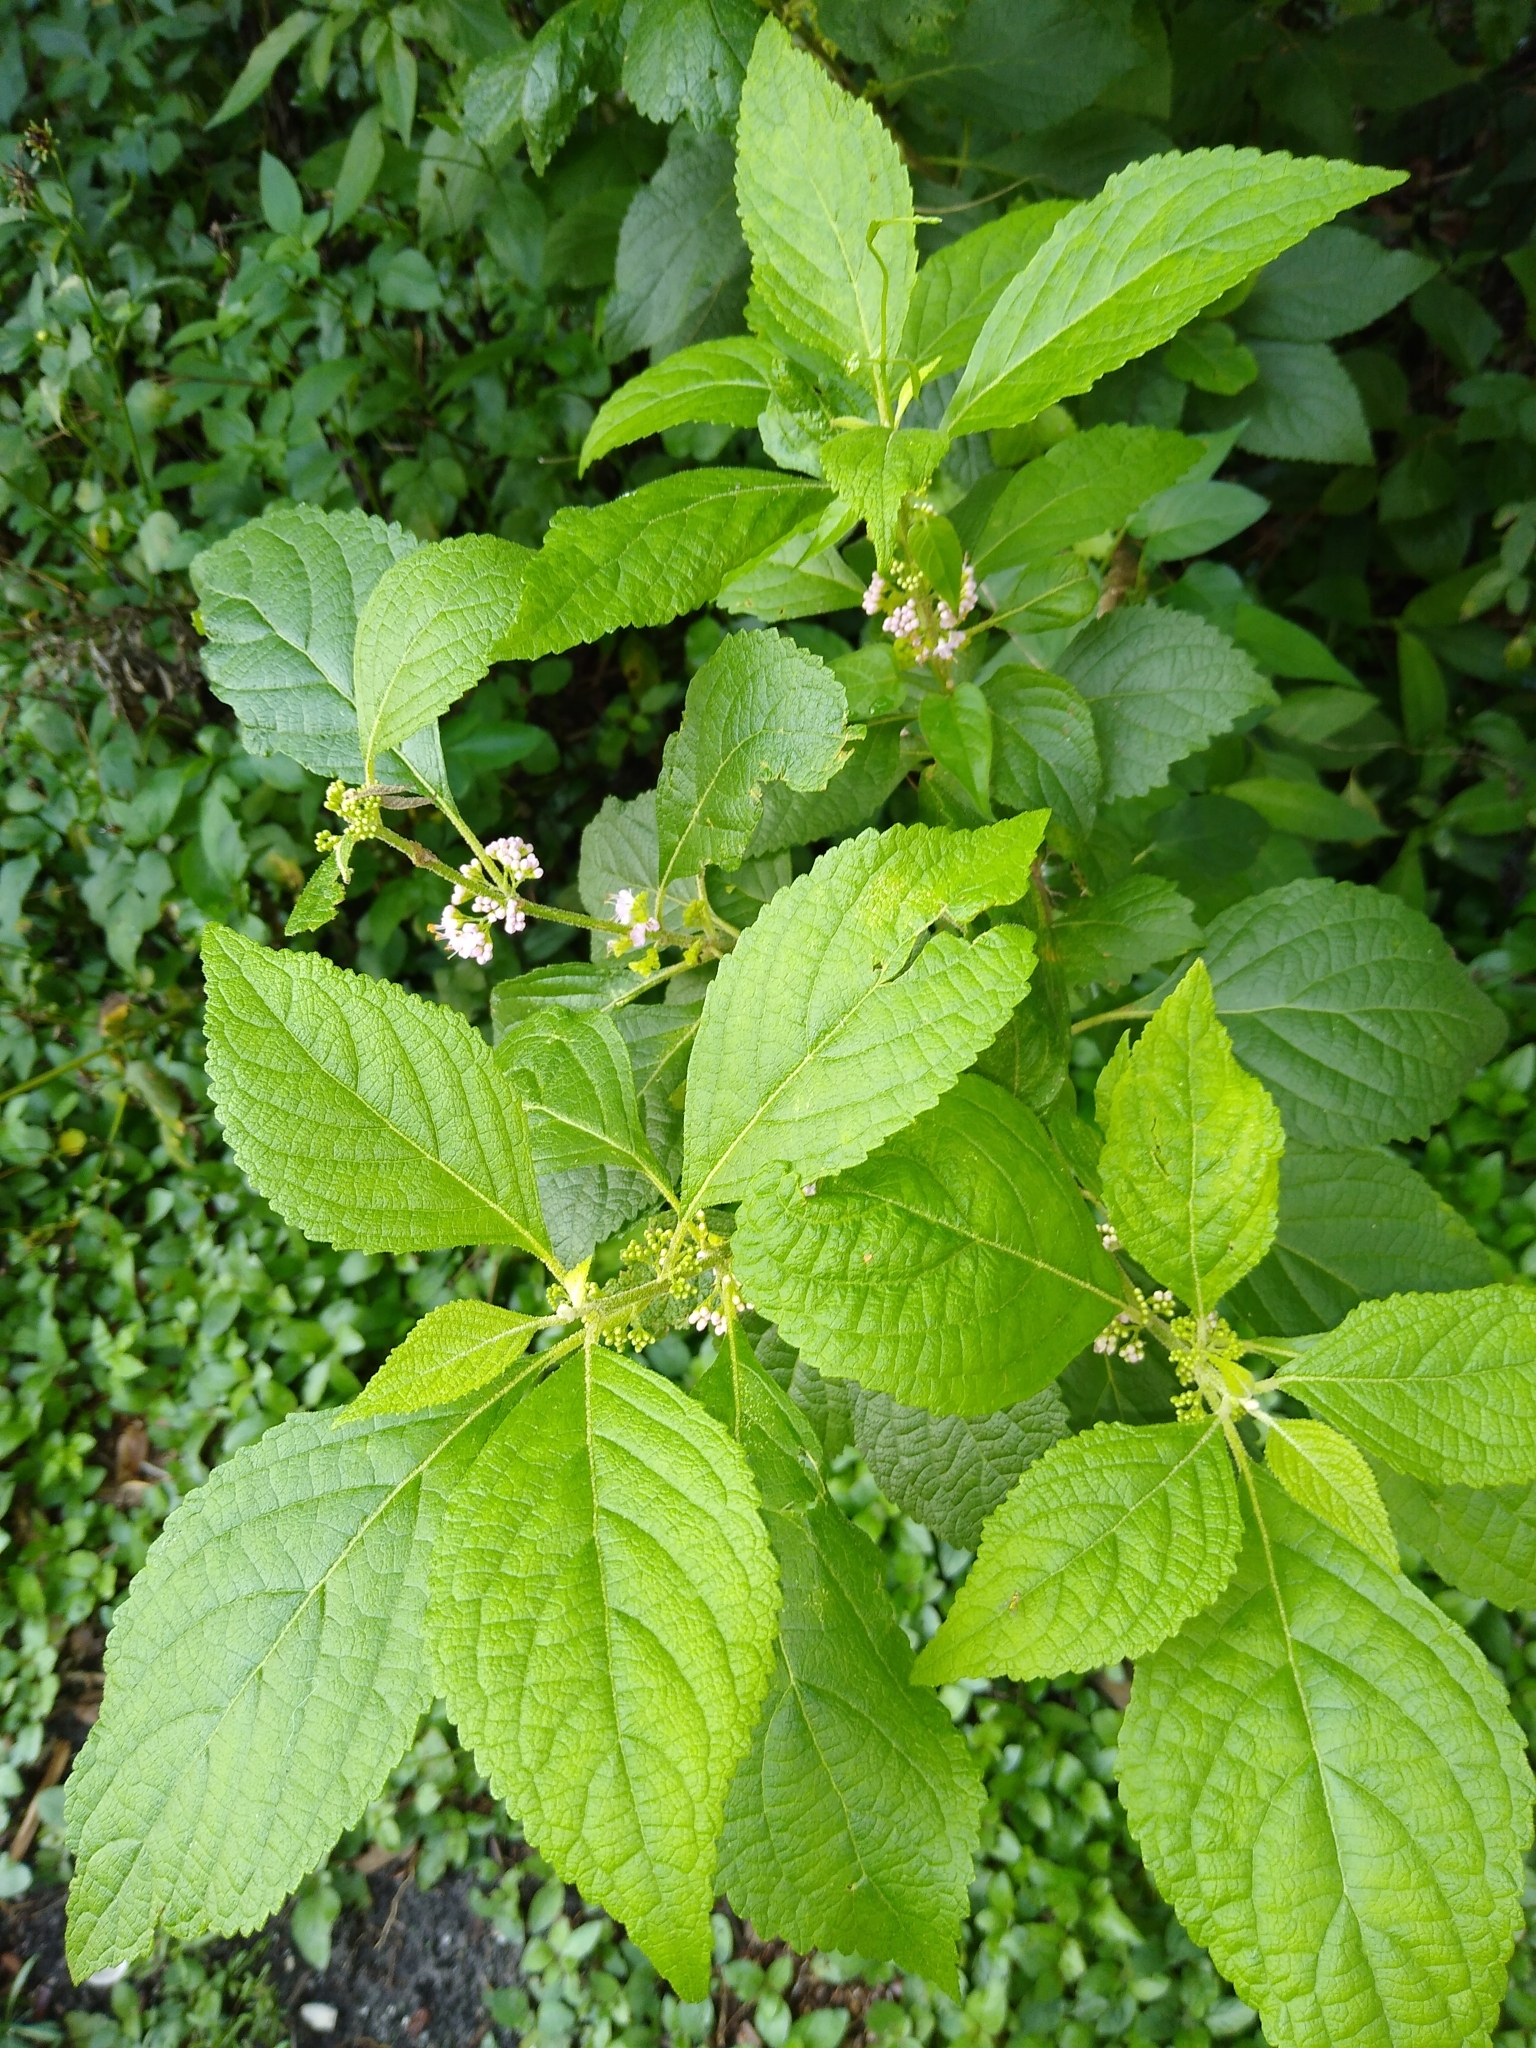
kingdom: Plantae
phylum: Tracheophyta
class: Magnoliopsida
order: Lamiales
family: Lamiaceae
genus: Callicarpa
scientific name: Callicarpa americana
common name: American beautyberry
